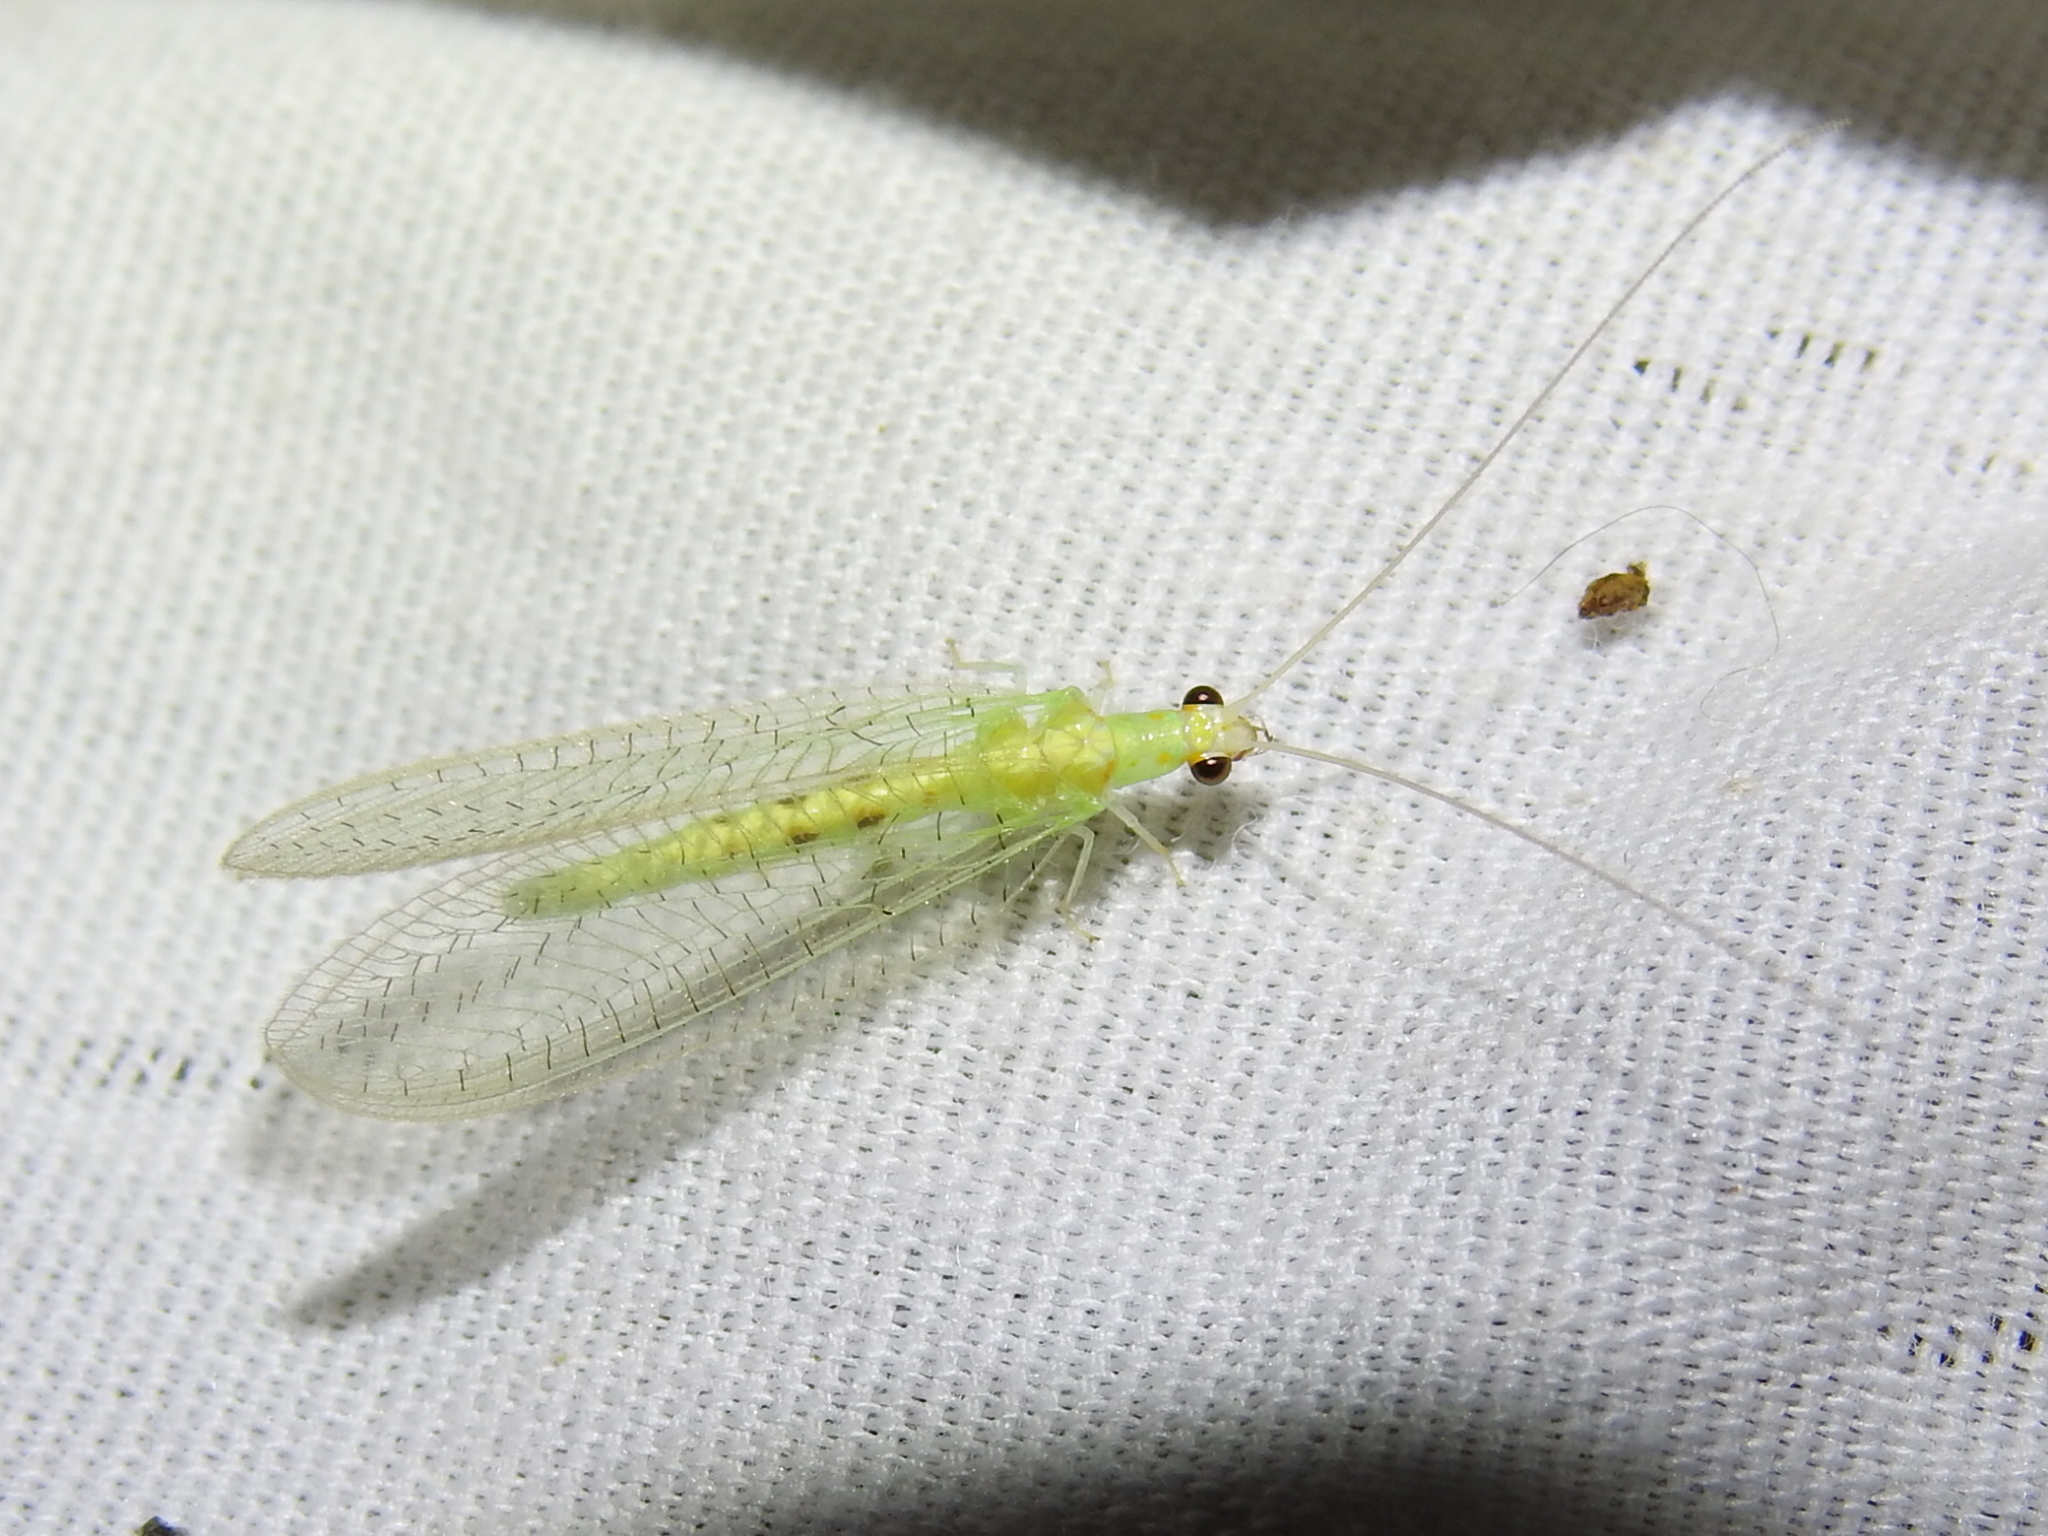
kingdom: Animalia
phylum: Arthropoda
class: Insecta
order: Neuroptera
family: Chrysopidae
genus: Chrysopa
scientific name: Chrysopa quadripunctata
